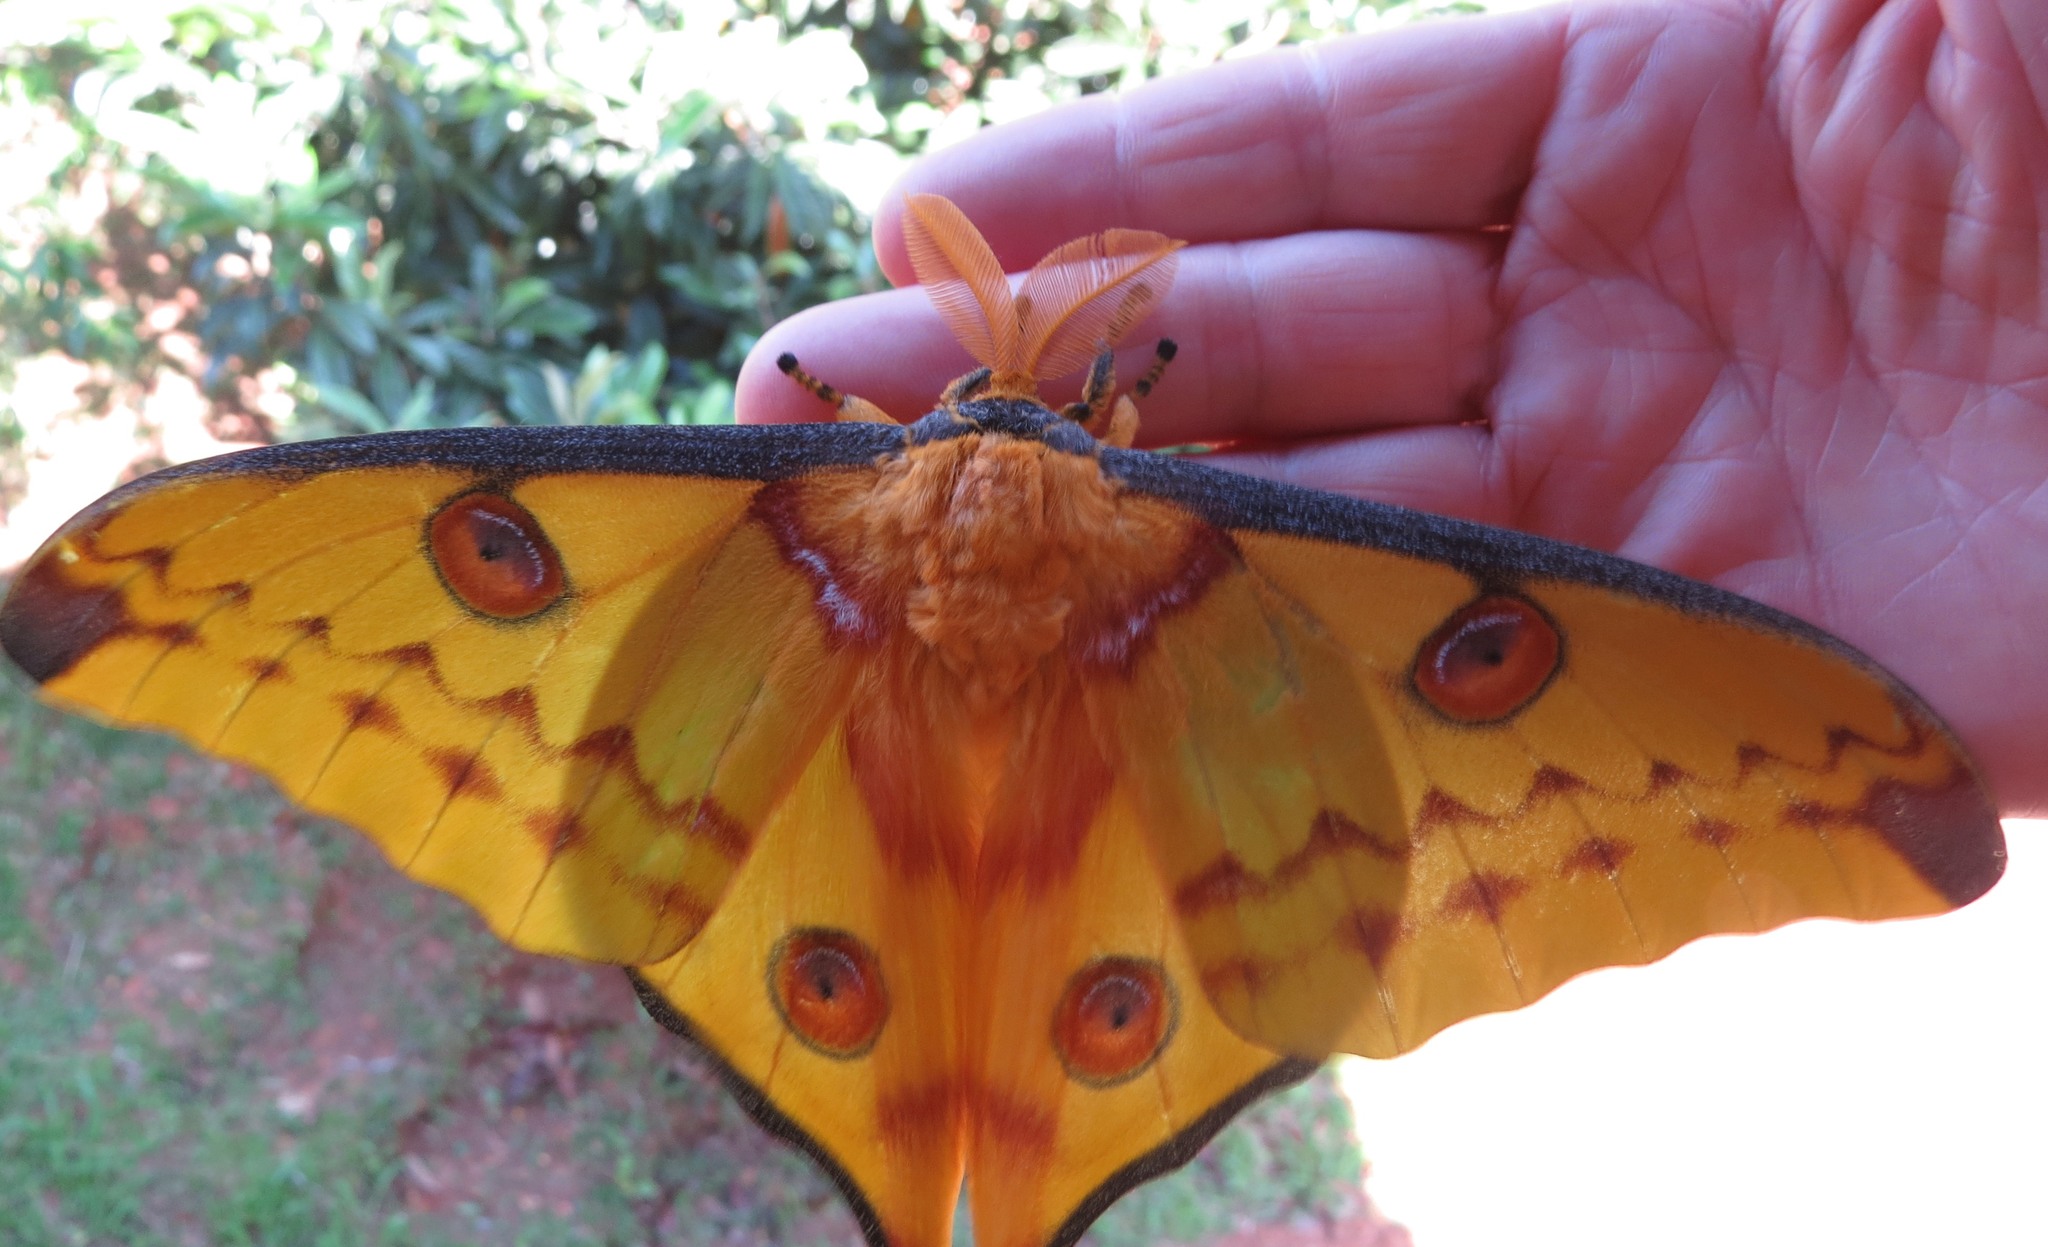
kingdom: Animalia
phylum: Arthropoda
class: Insecta
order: Lepidoptera
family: Saturniidae
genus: Argema
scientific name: Argema mittrei
